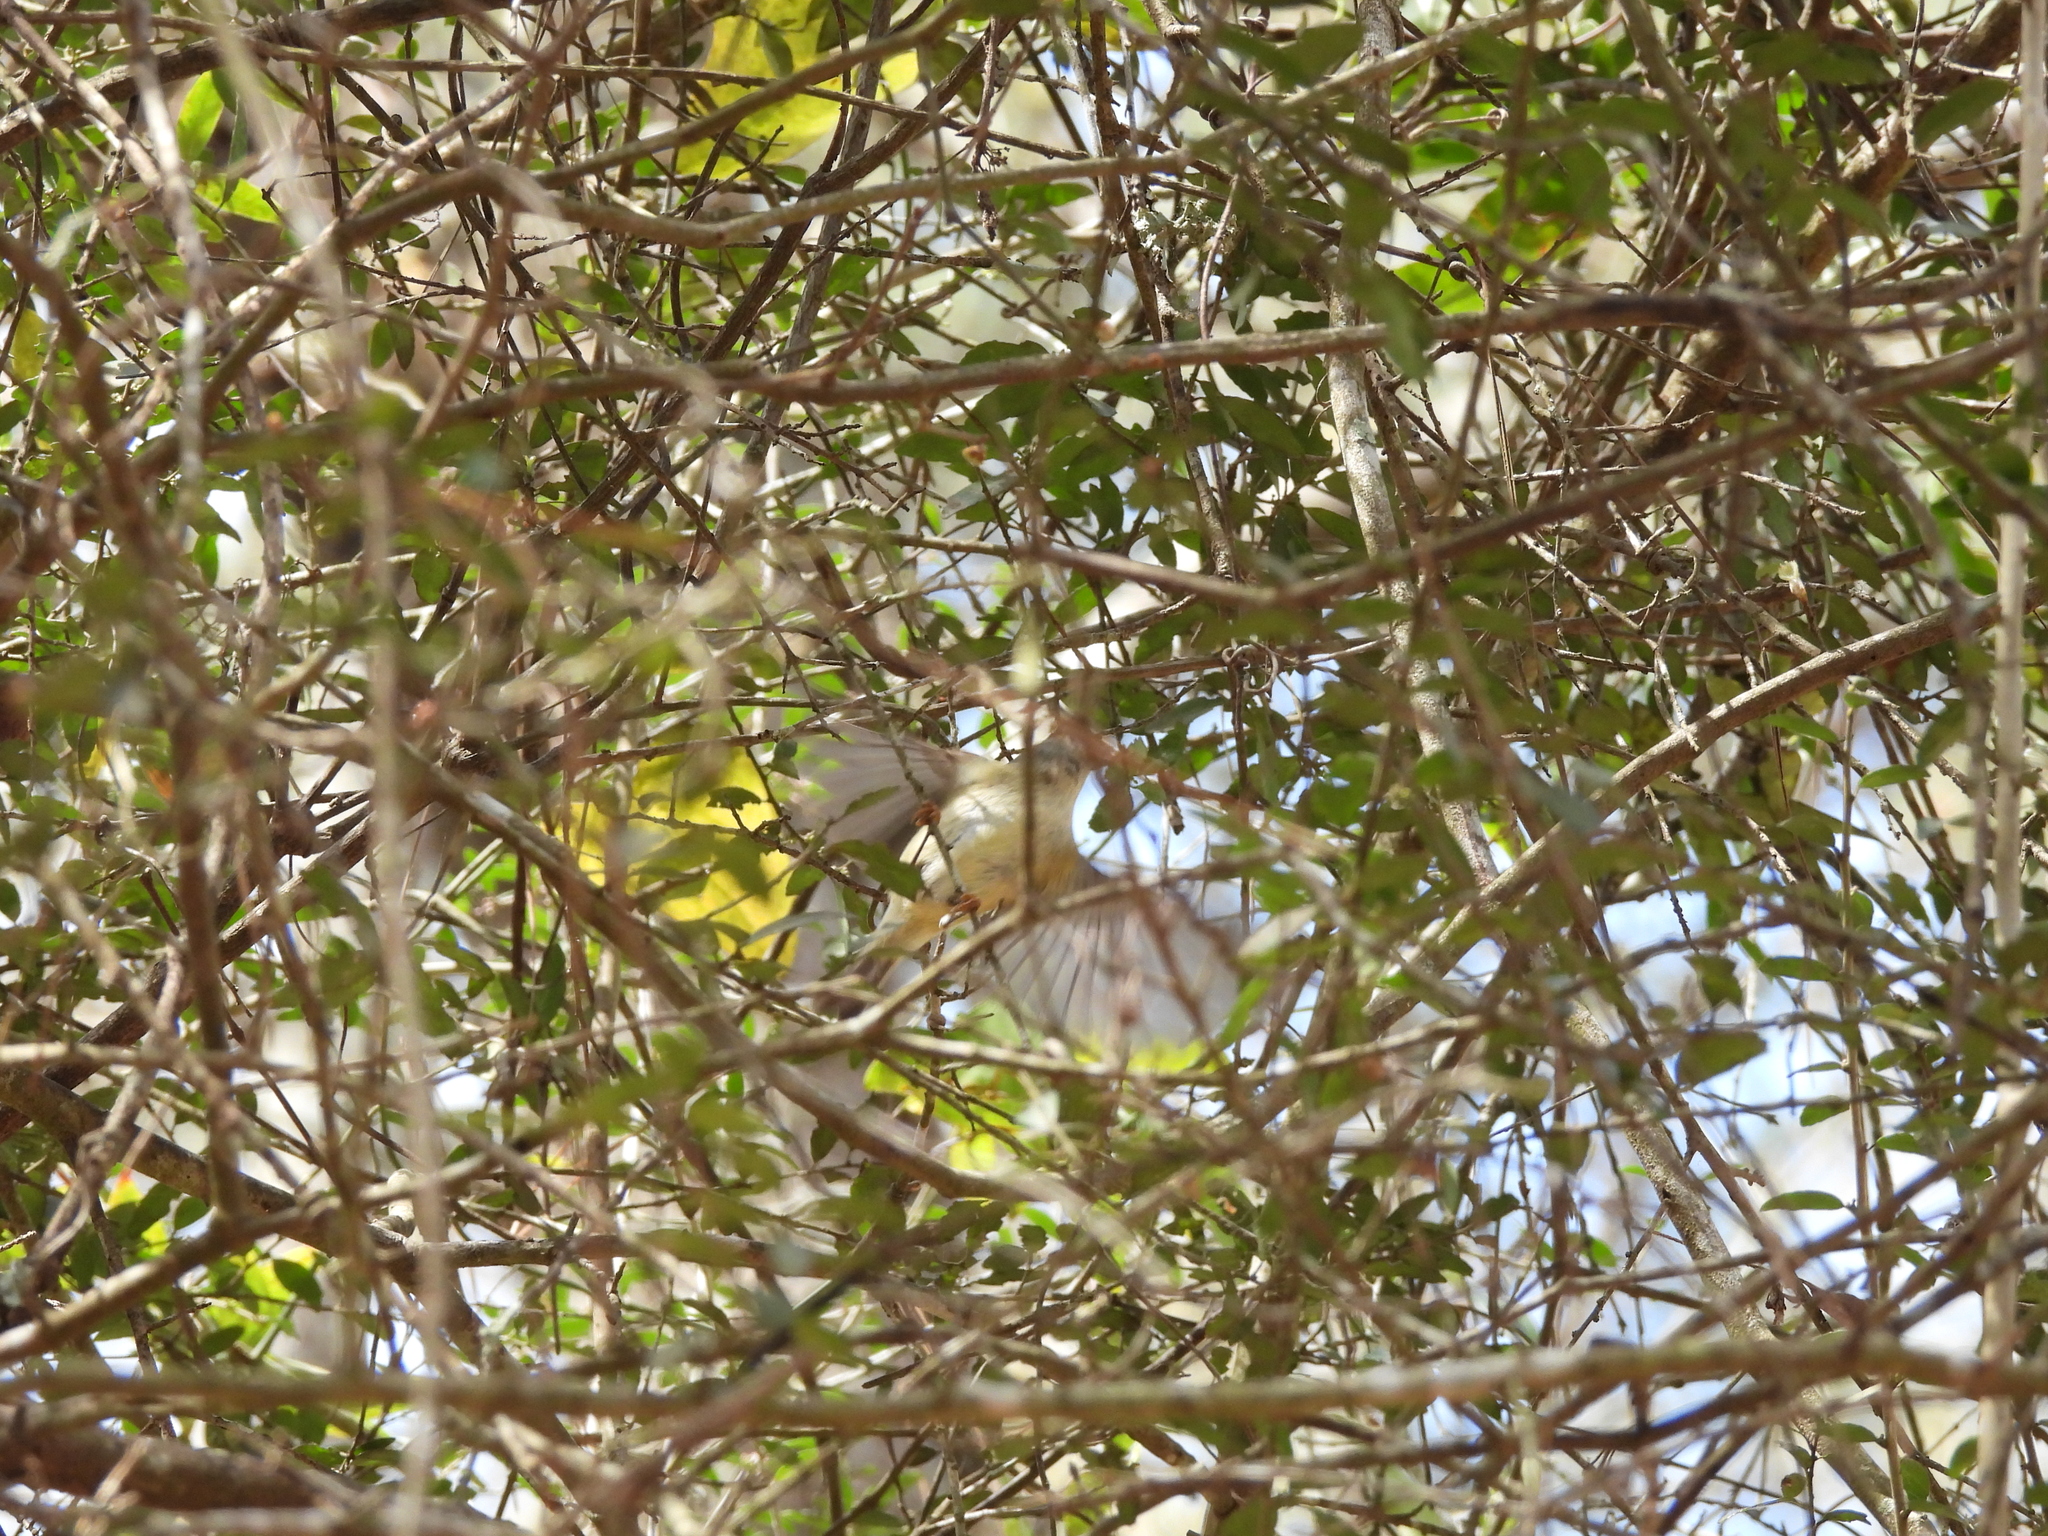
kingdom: Animalia
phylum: Chordata
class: Aves
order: Passeriformes
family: Regulidae
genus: Regulus
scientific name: Regulus calendula
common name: Ruby-crowned kinglet
